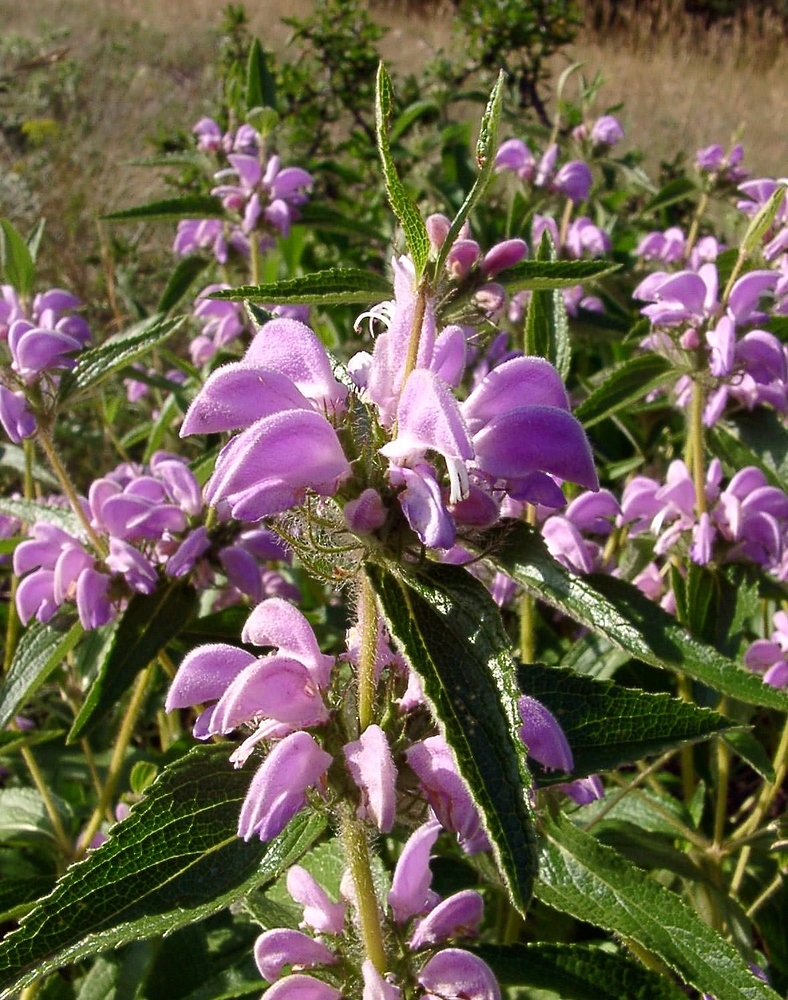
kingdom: Plantae
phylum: Tracheophyta
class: Magnoliopsida
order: Lamiales
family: Lamiaceae
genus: Phlomis
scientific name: Phlomis herba-venti
